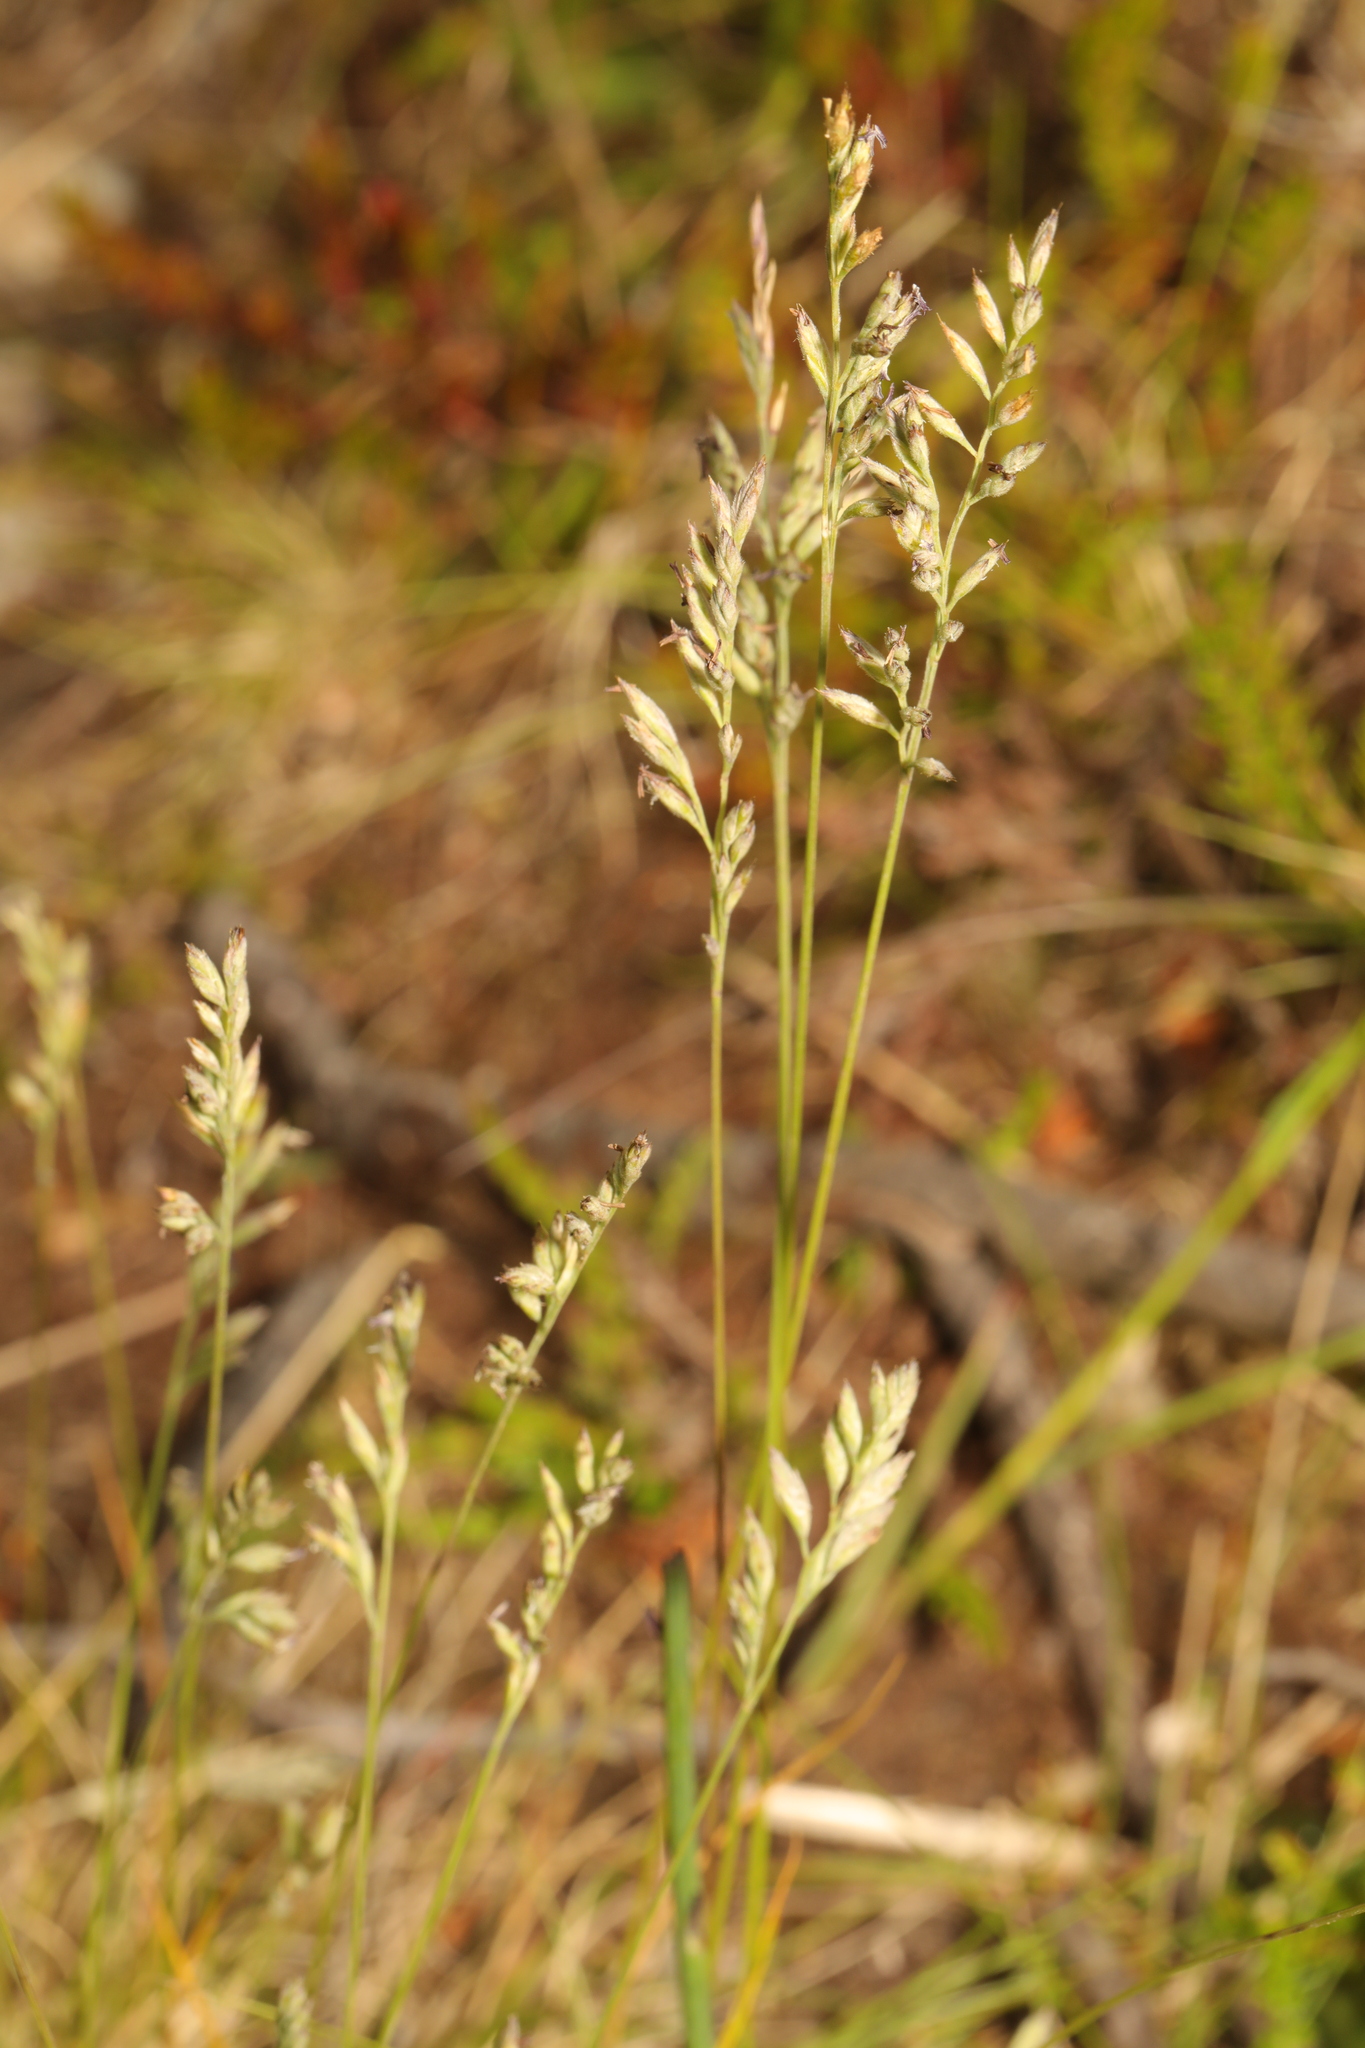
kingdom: Plantae
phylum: Tracheophyta
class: Liliopsida
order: Poales
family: Poaceae
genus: Poa
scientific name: Poa annua
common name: Annual bluegrass
